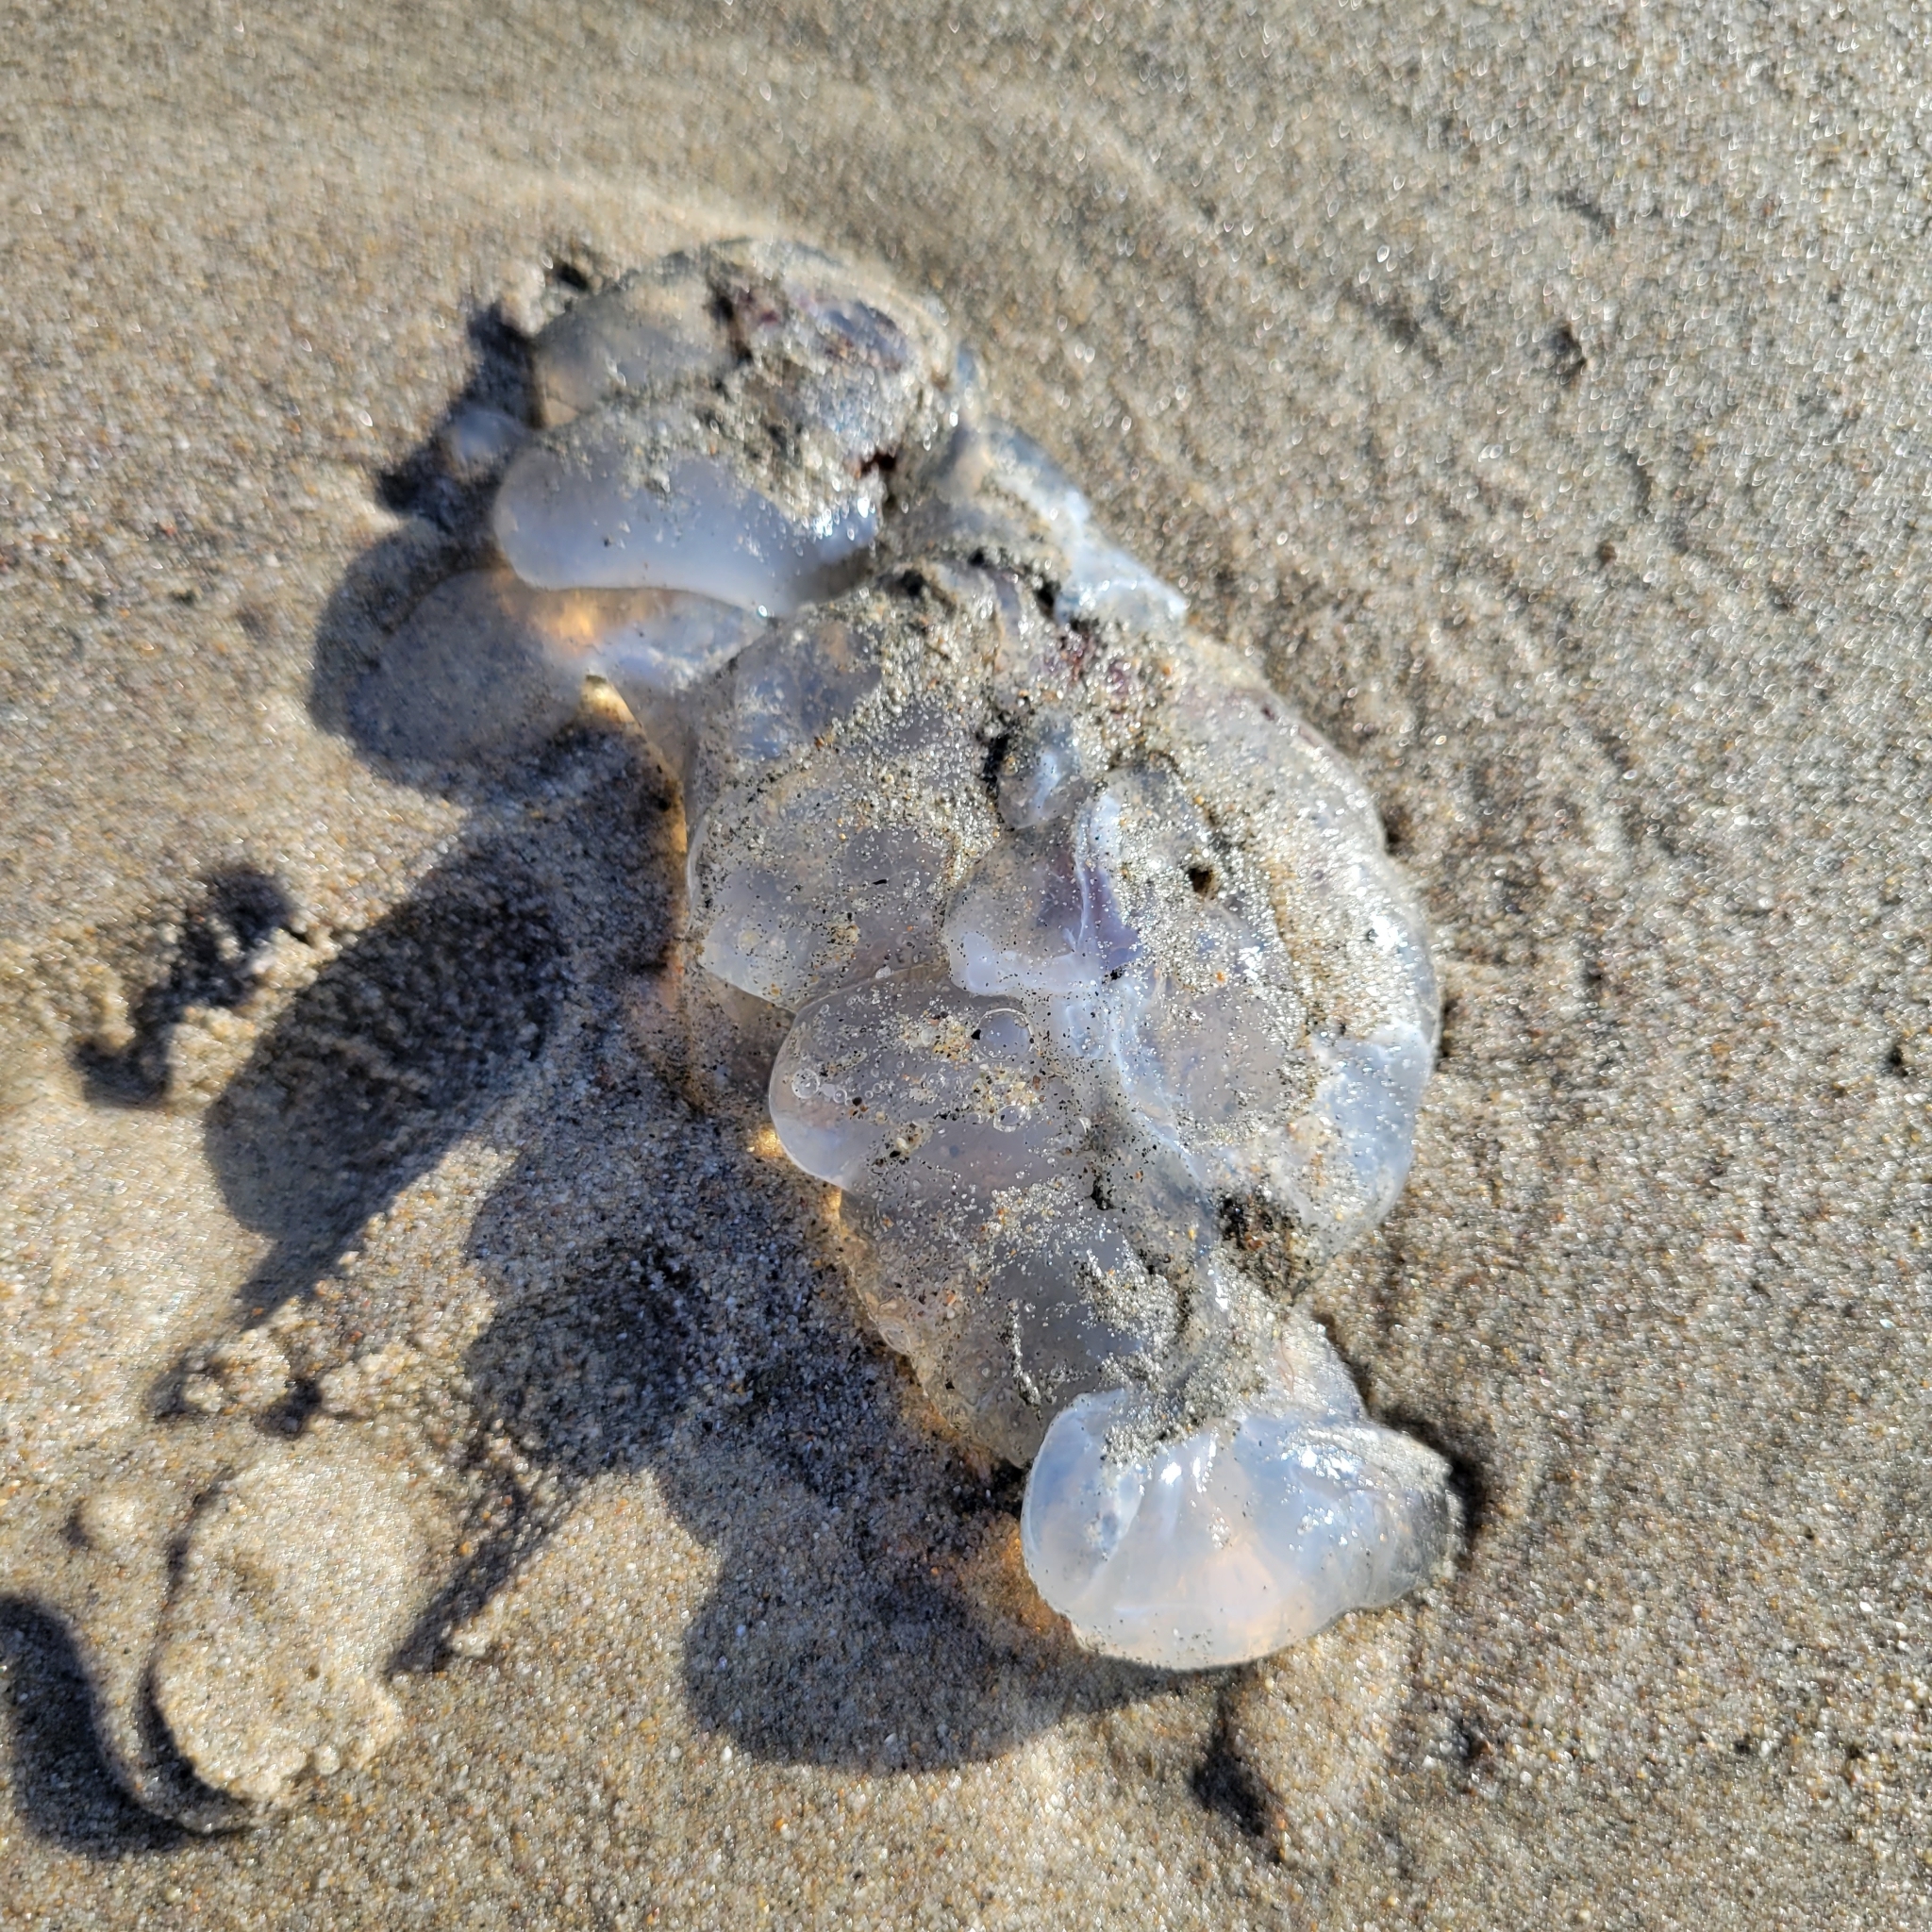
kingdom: Animalia
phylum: Cnidaria
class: Scyphozoa
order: Semaeostomeae
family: Ulmaridae
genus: Aurelia
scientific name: Aurelia labiata
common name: Pacific moon jelly
